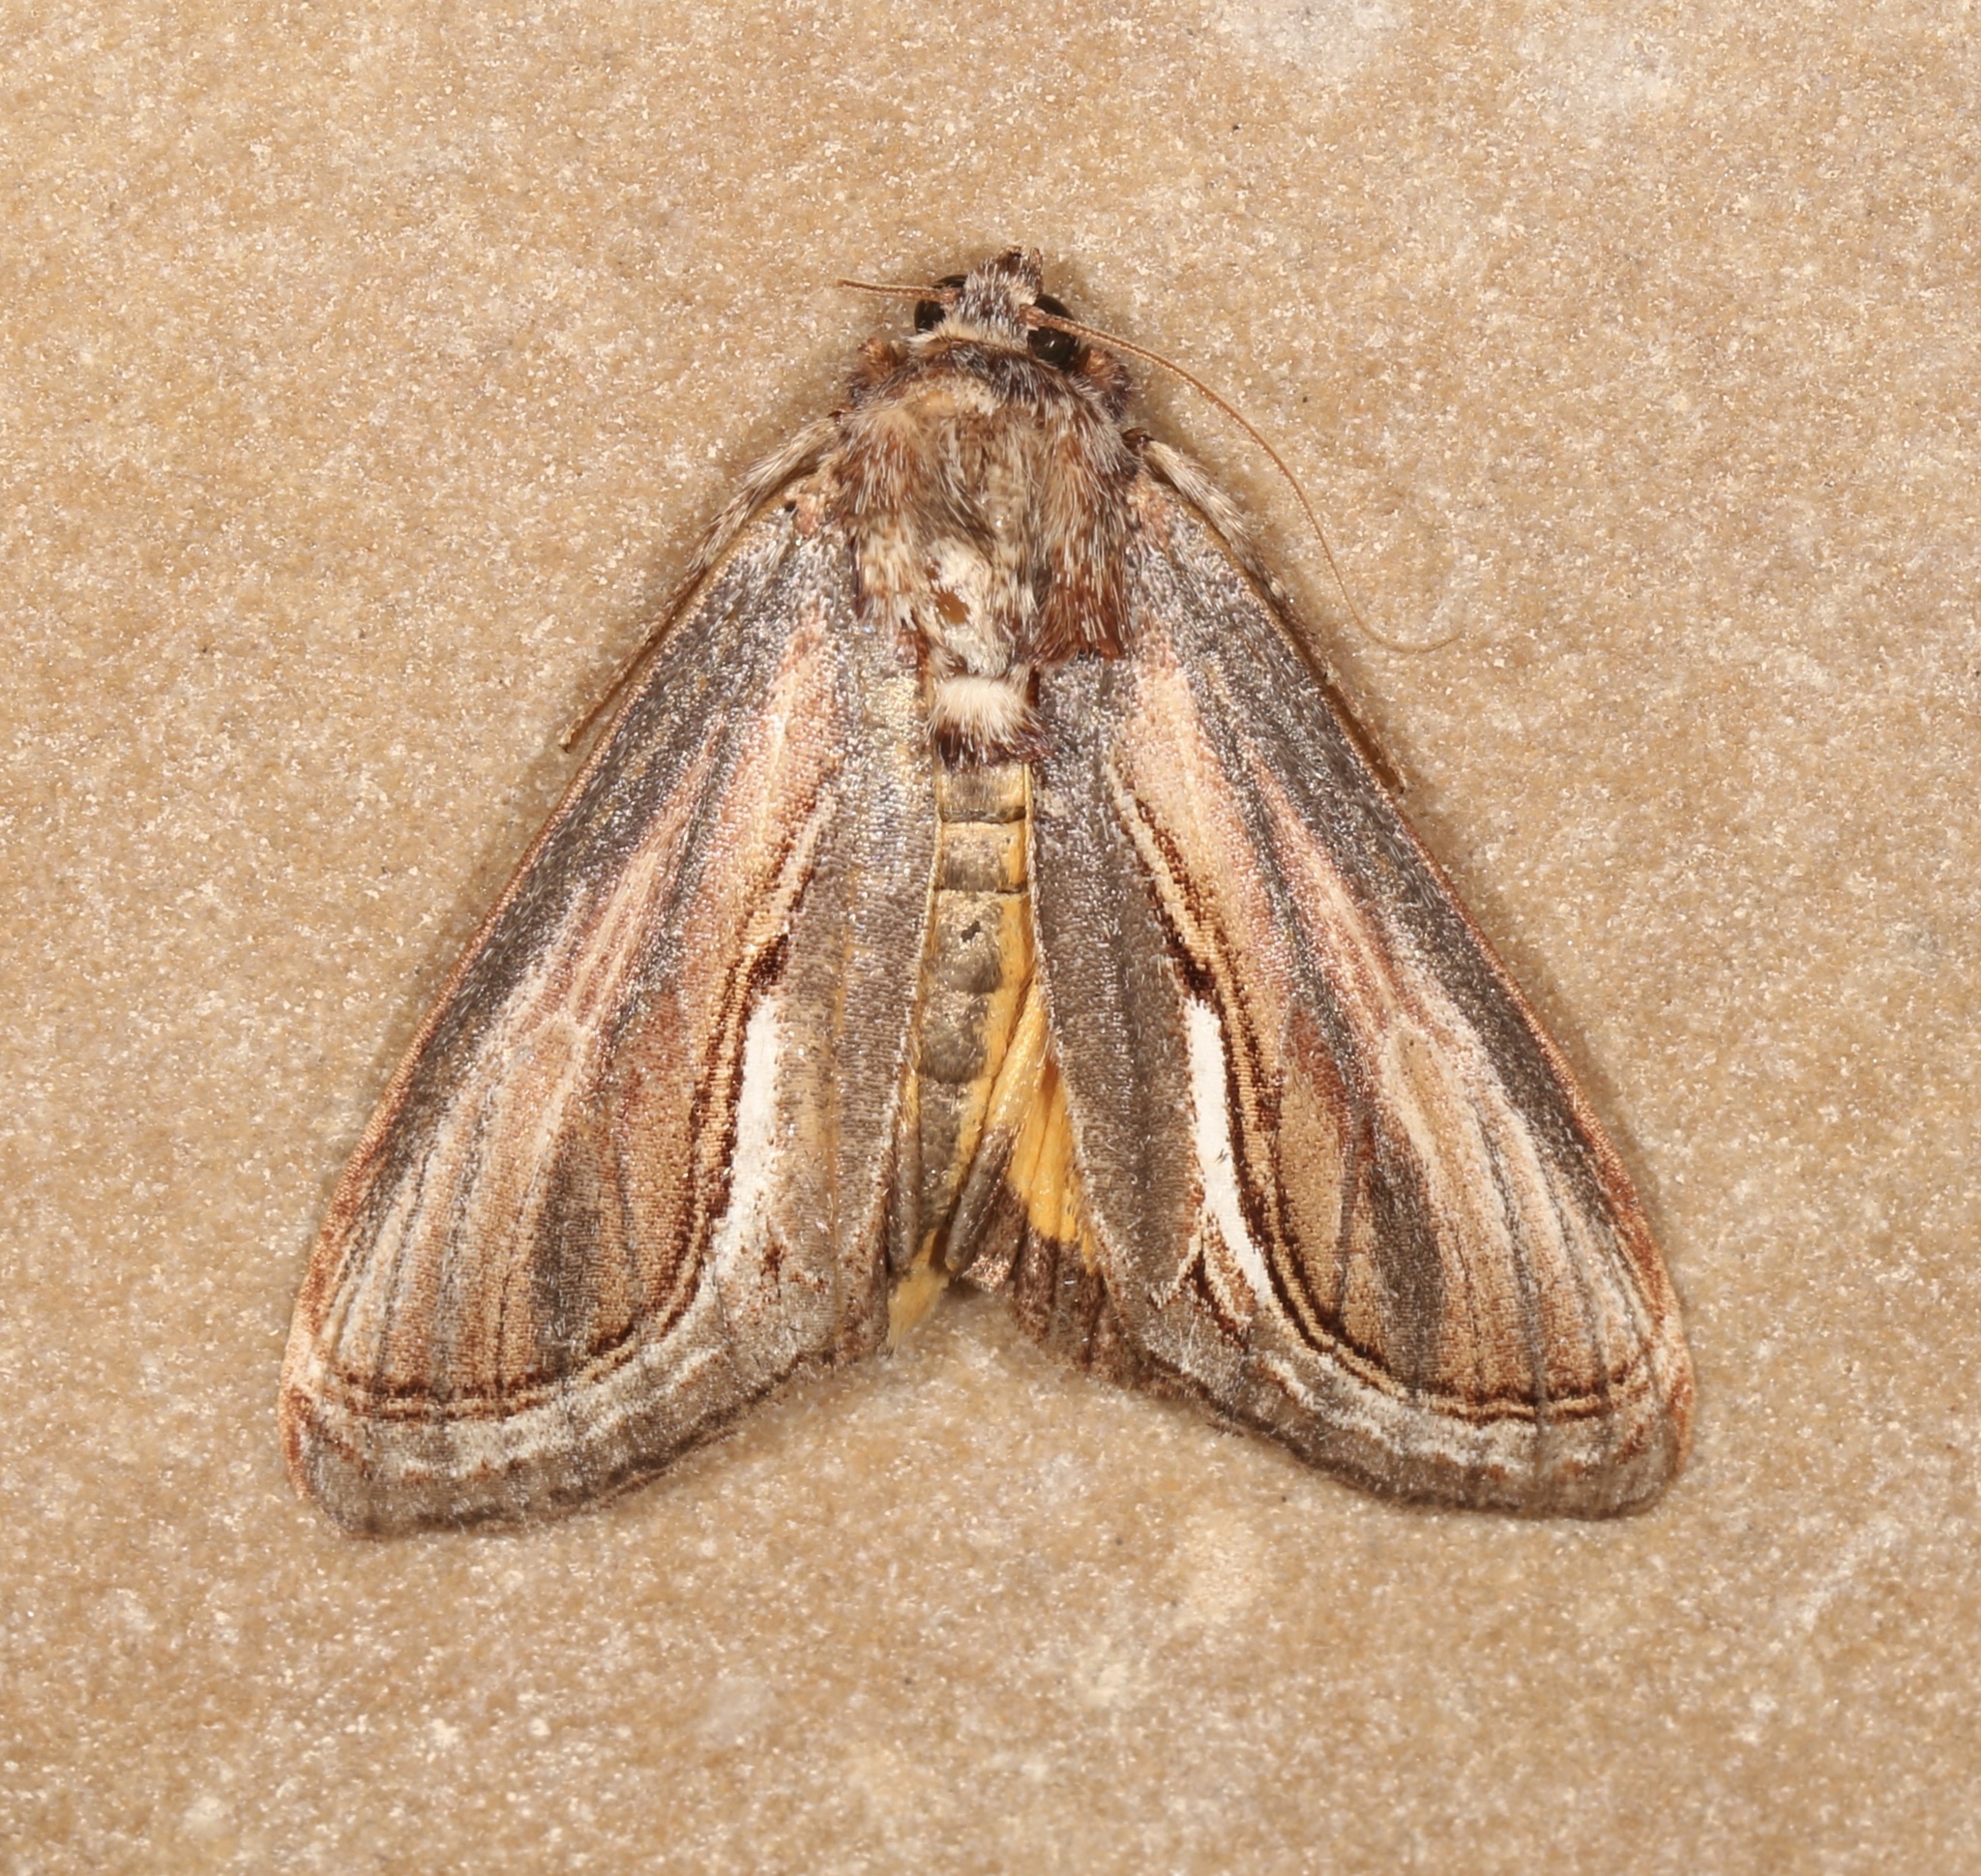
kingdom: Animalia
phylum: Arthropoda
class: Insecta
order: Lepidoptera
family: Noctuidae
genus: Gerrodes
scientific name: Gerrodes minatea
